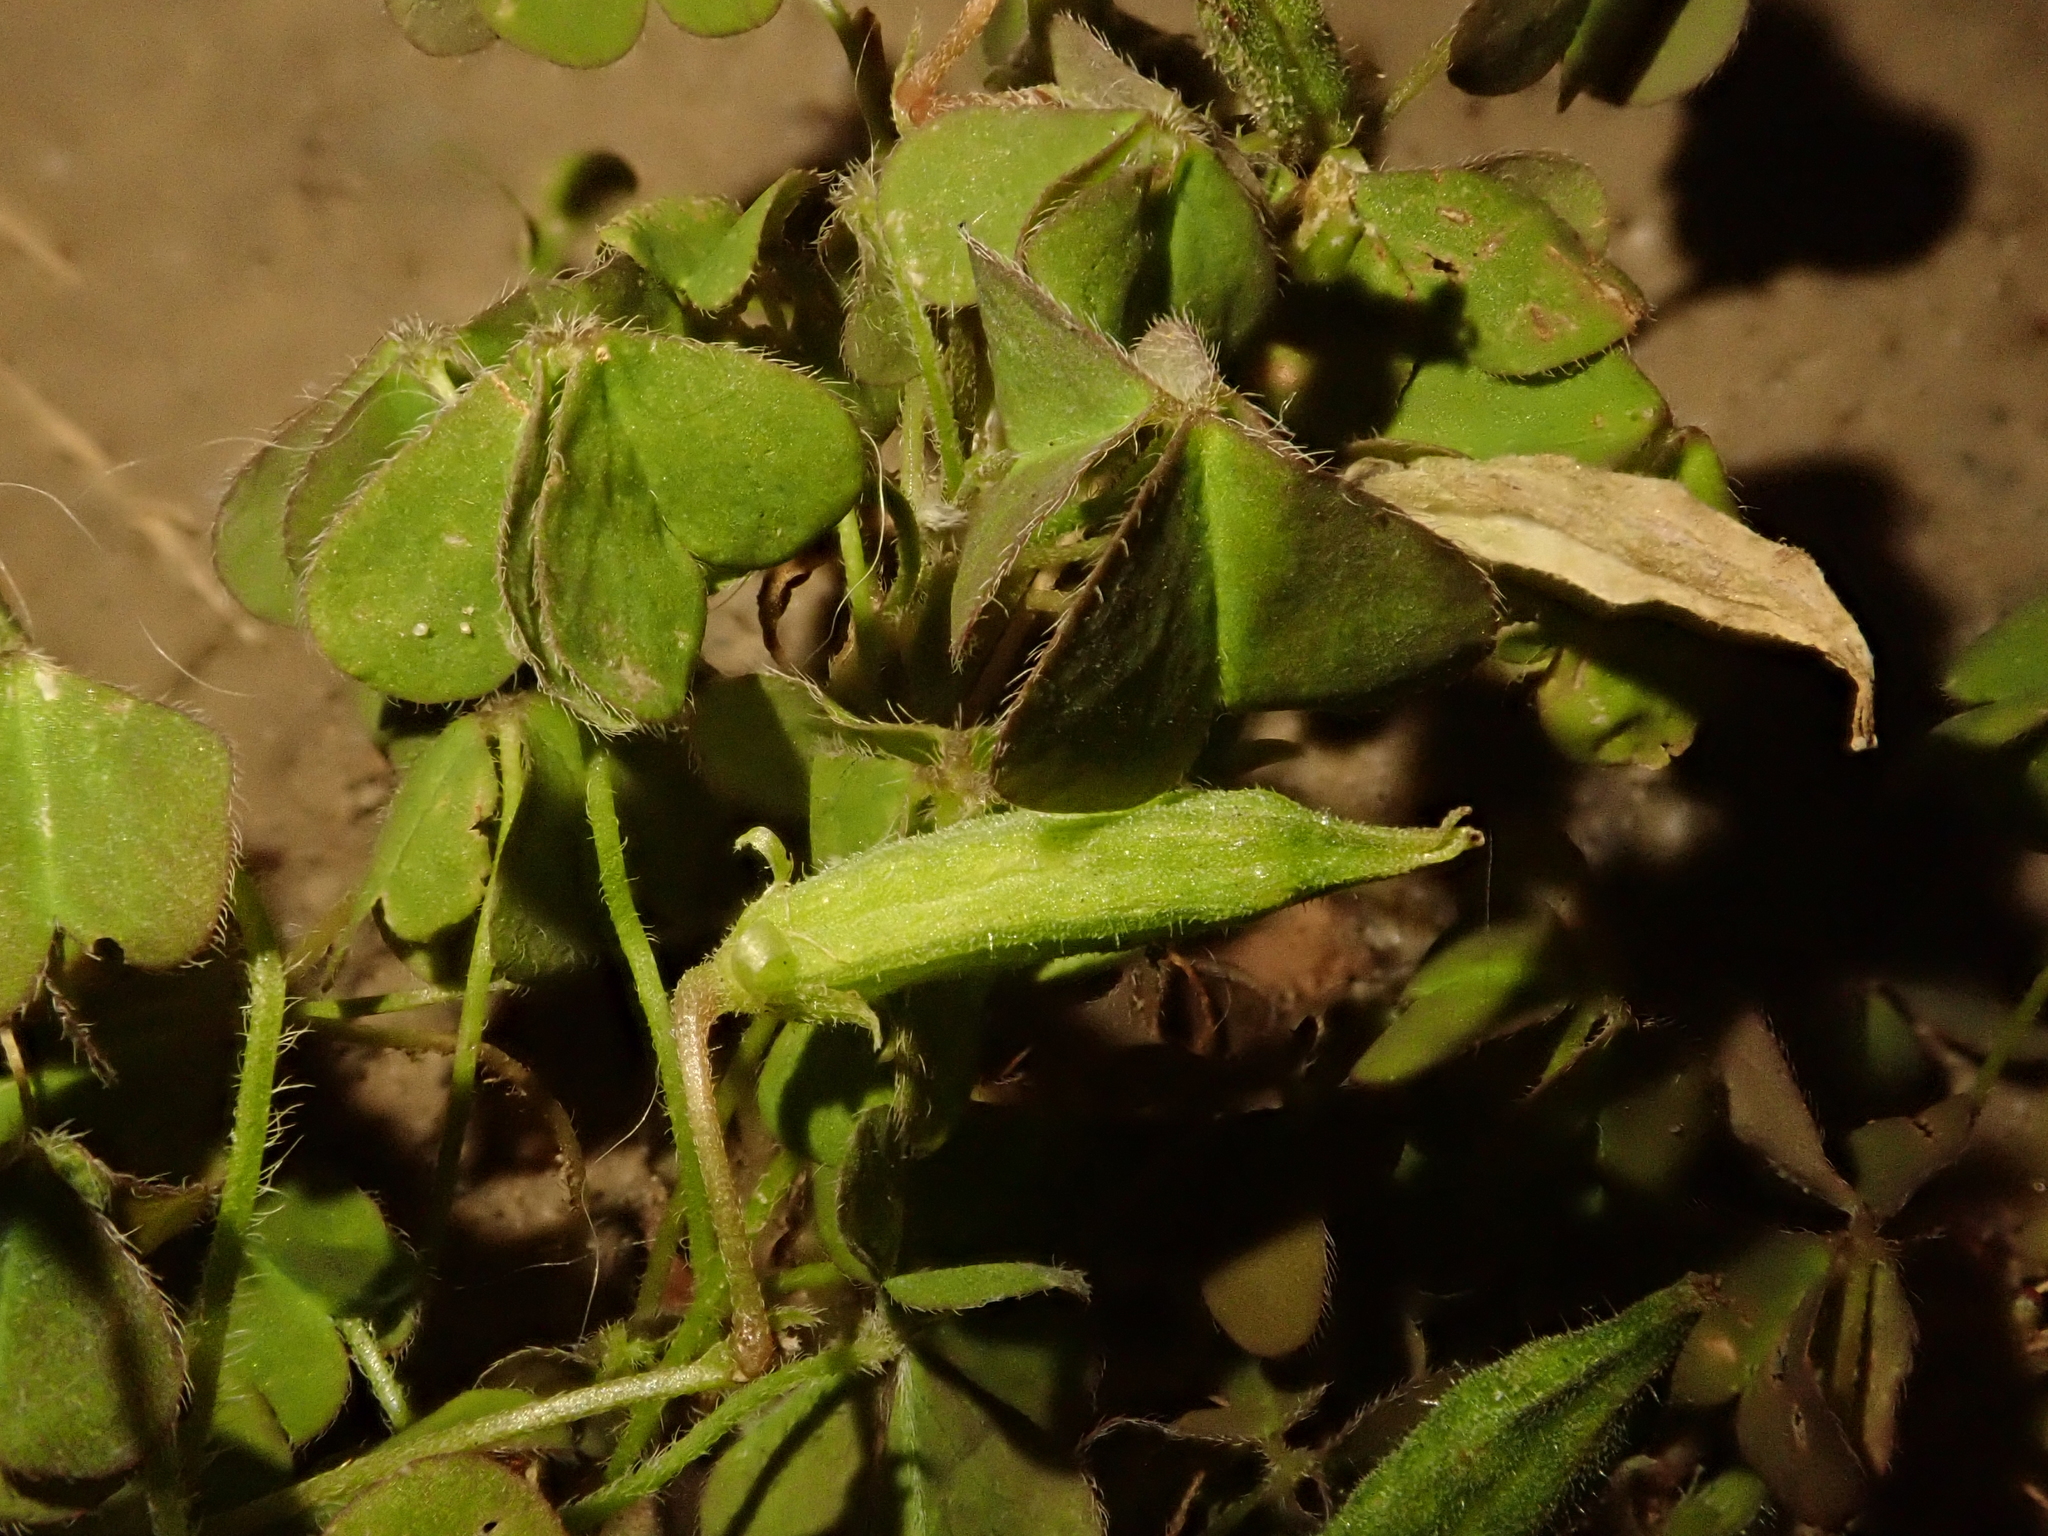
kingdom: Plantae
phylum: Tracheophyta
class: Magnoliopsida
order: Oxalidales
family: Oxalidaceae
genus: Oxalis
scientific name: Oxalis corniculata
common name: Procumbent yellow-sorrel
